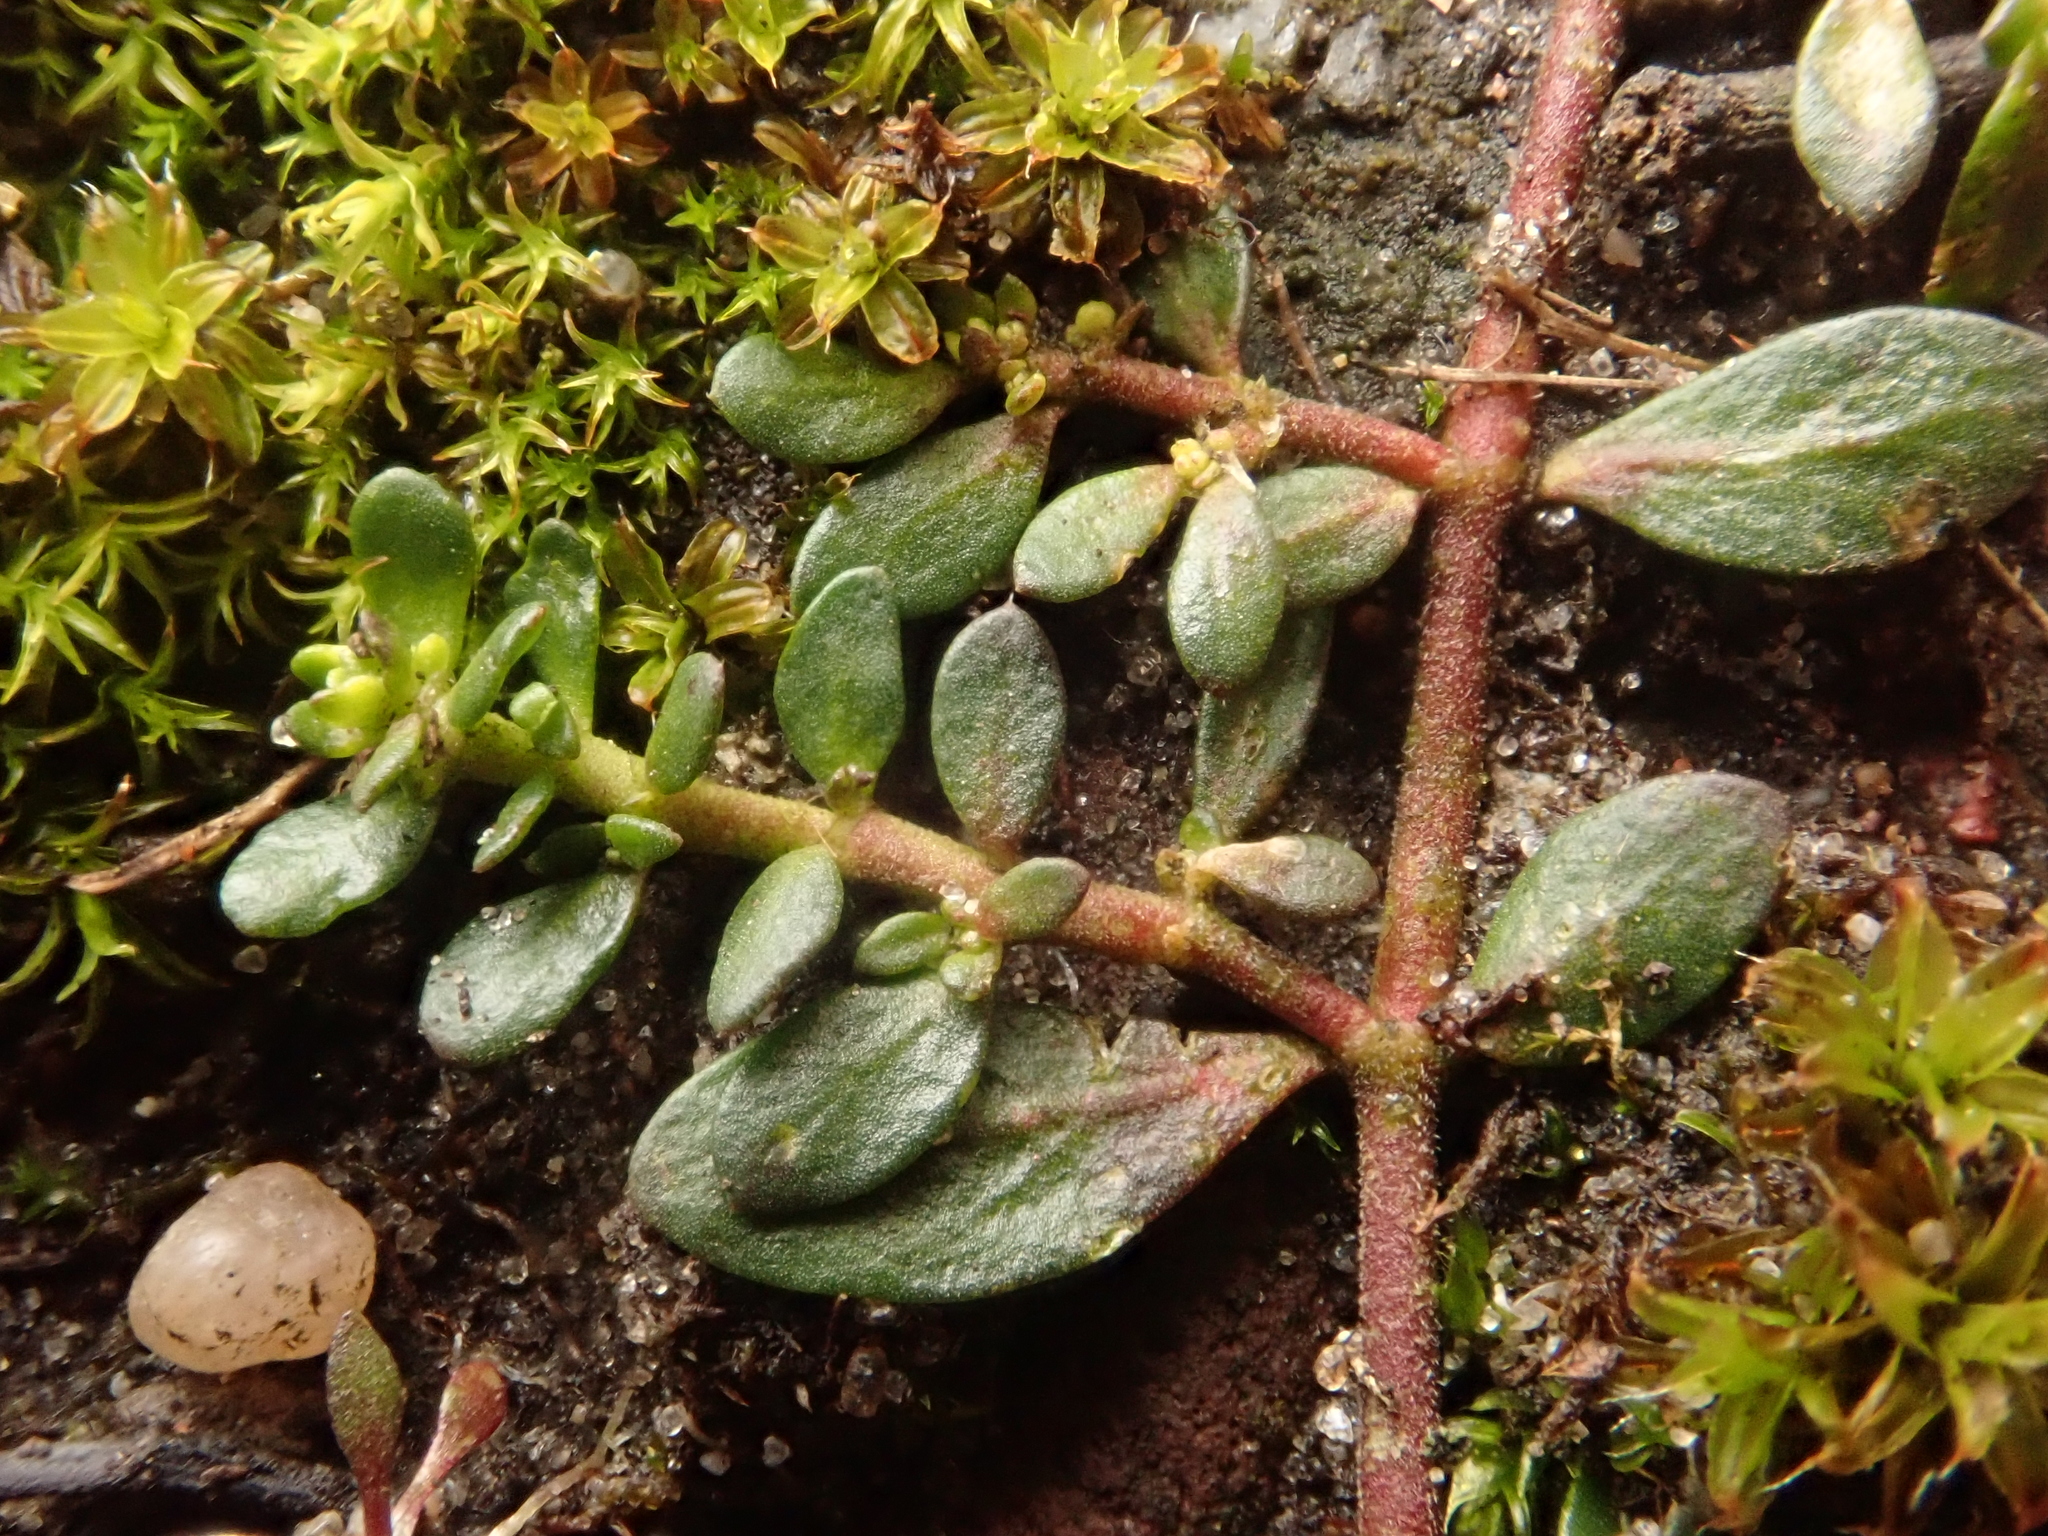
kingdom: Plantae
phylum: Tracheophyta
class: Magnoliopsida
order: Caryophyllales
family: Caryophyllaceae
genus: Herniaria
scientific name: Herniaria glabra
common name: Smooth rupturewort
